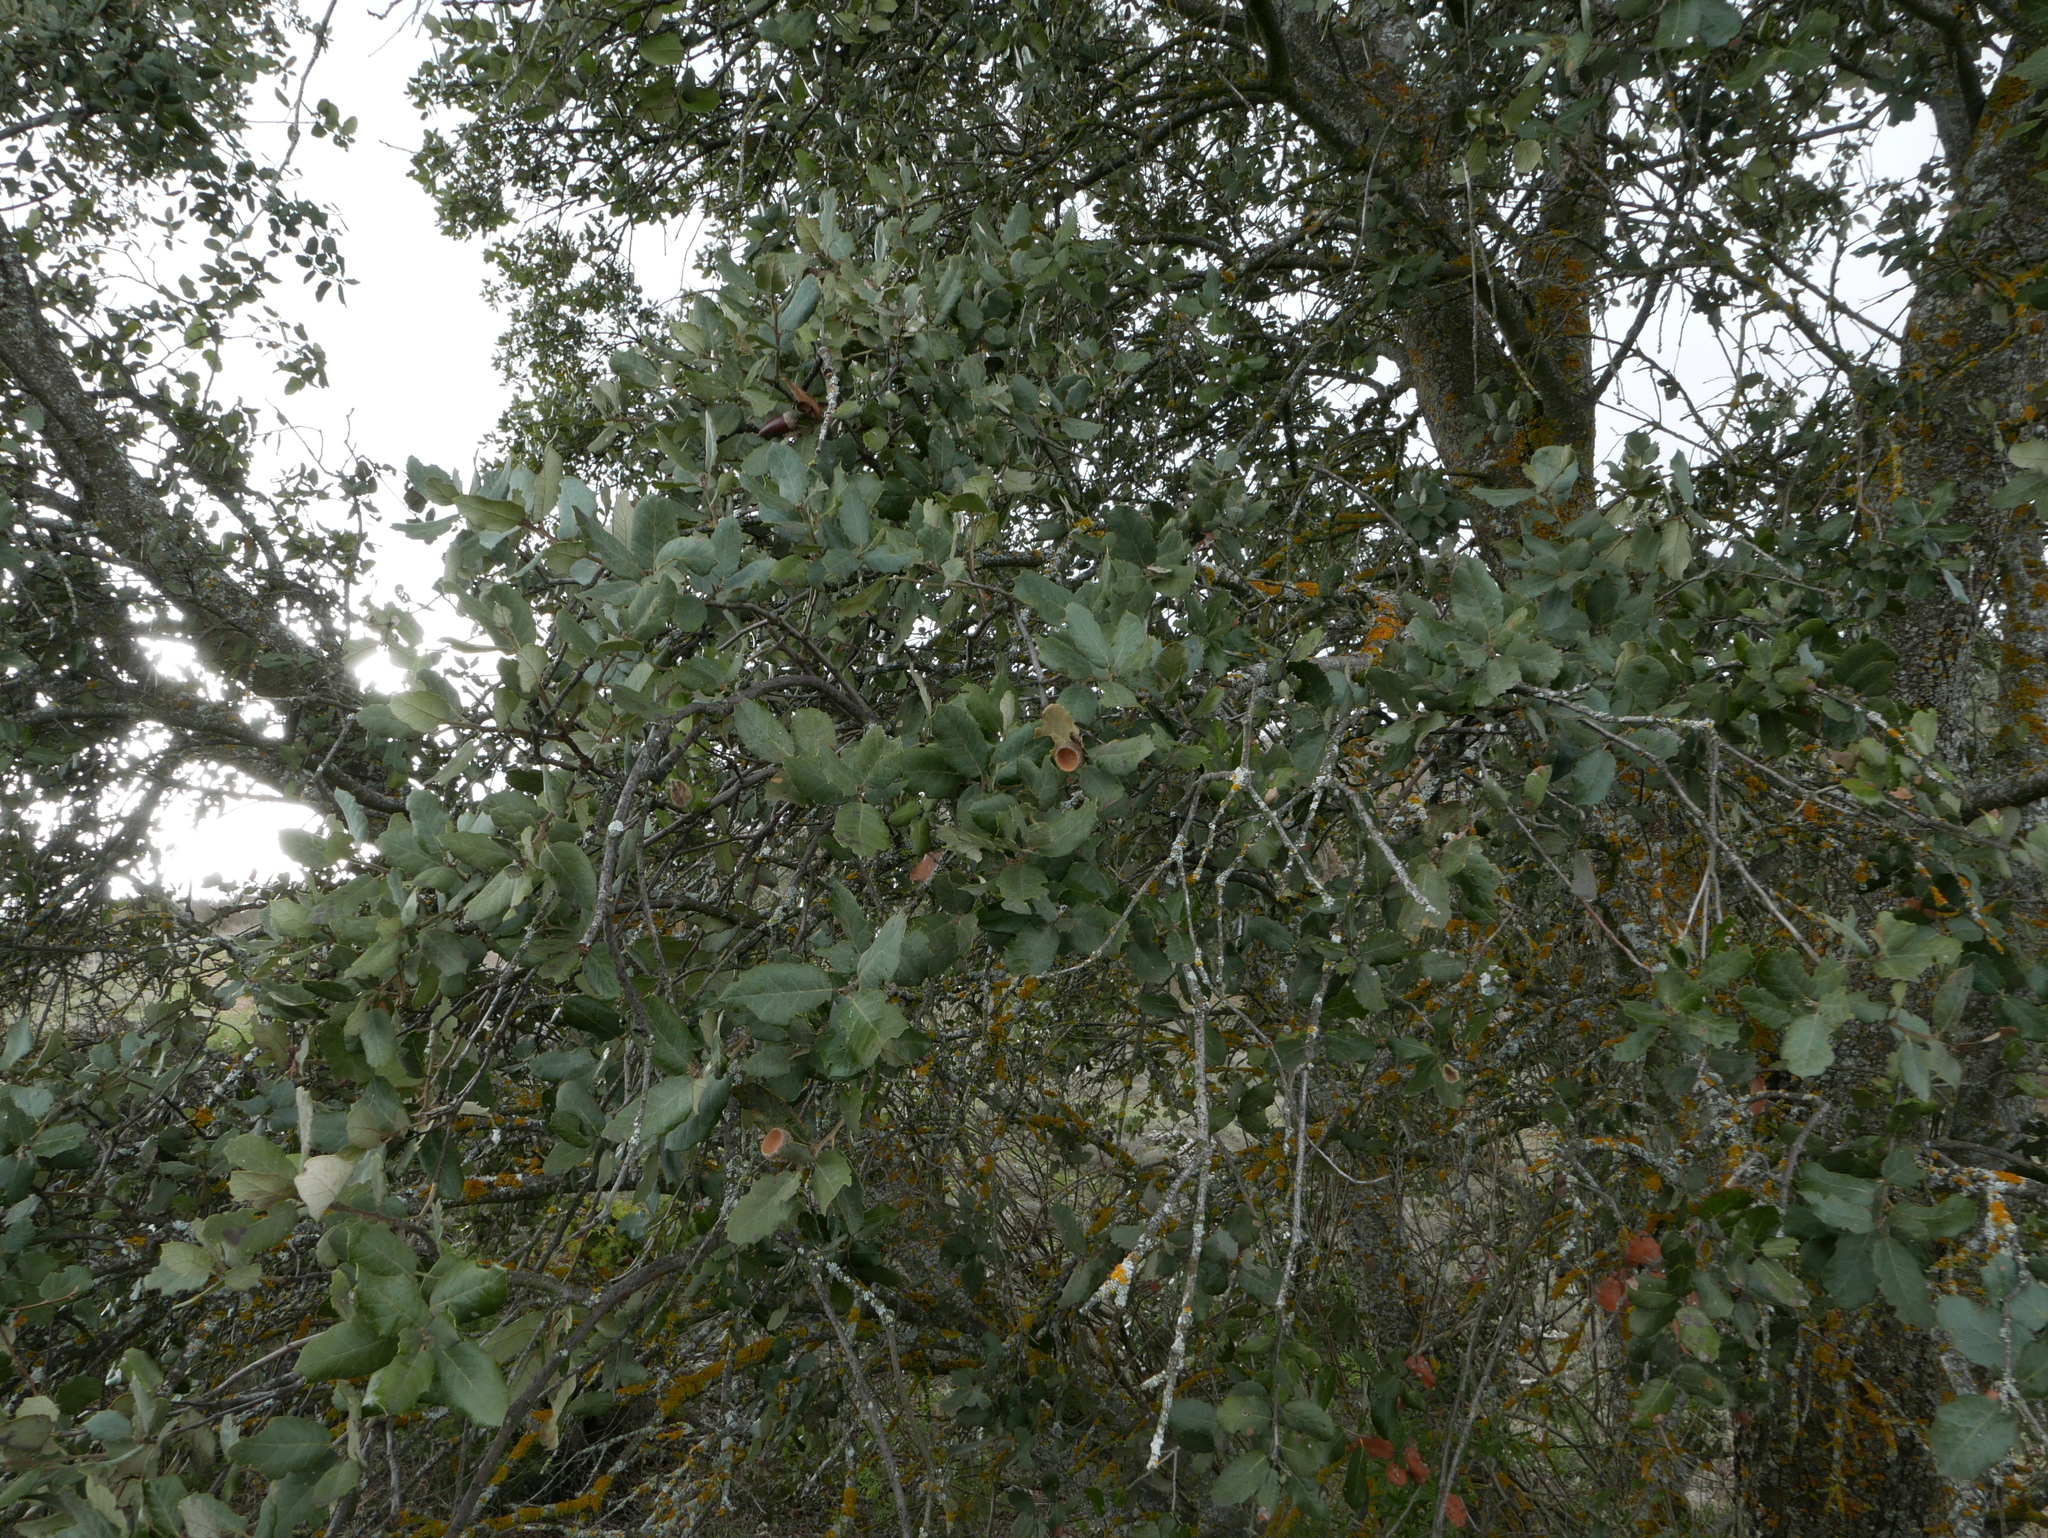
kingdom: Plantae
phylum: Tracheophyta
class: Magnoliopsida
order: Fagales
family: Fagaceae
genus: Quercus
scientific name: Quercus rotundifolia
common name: Holm oak
